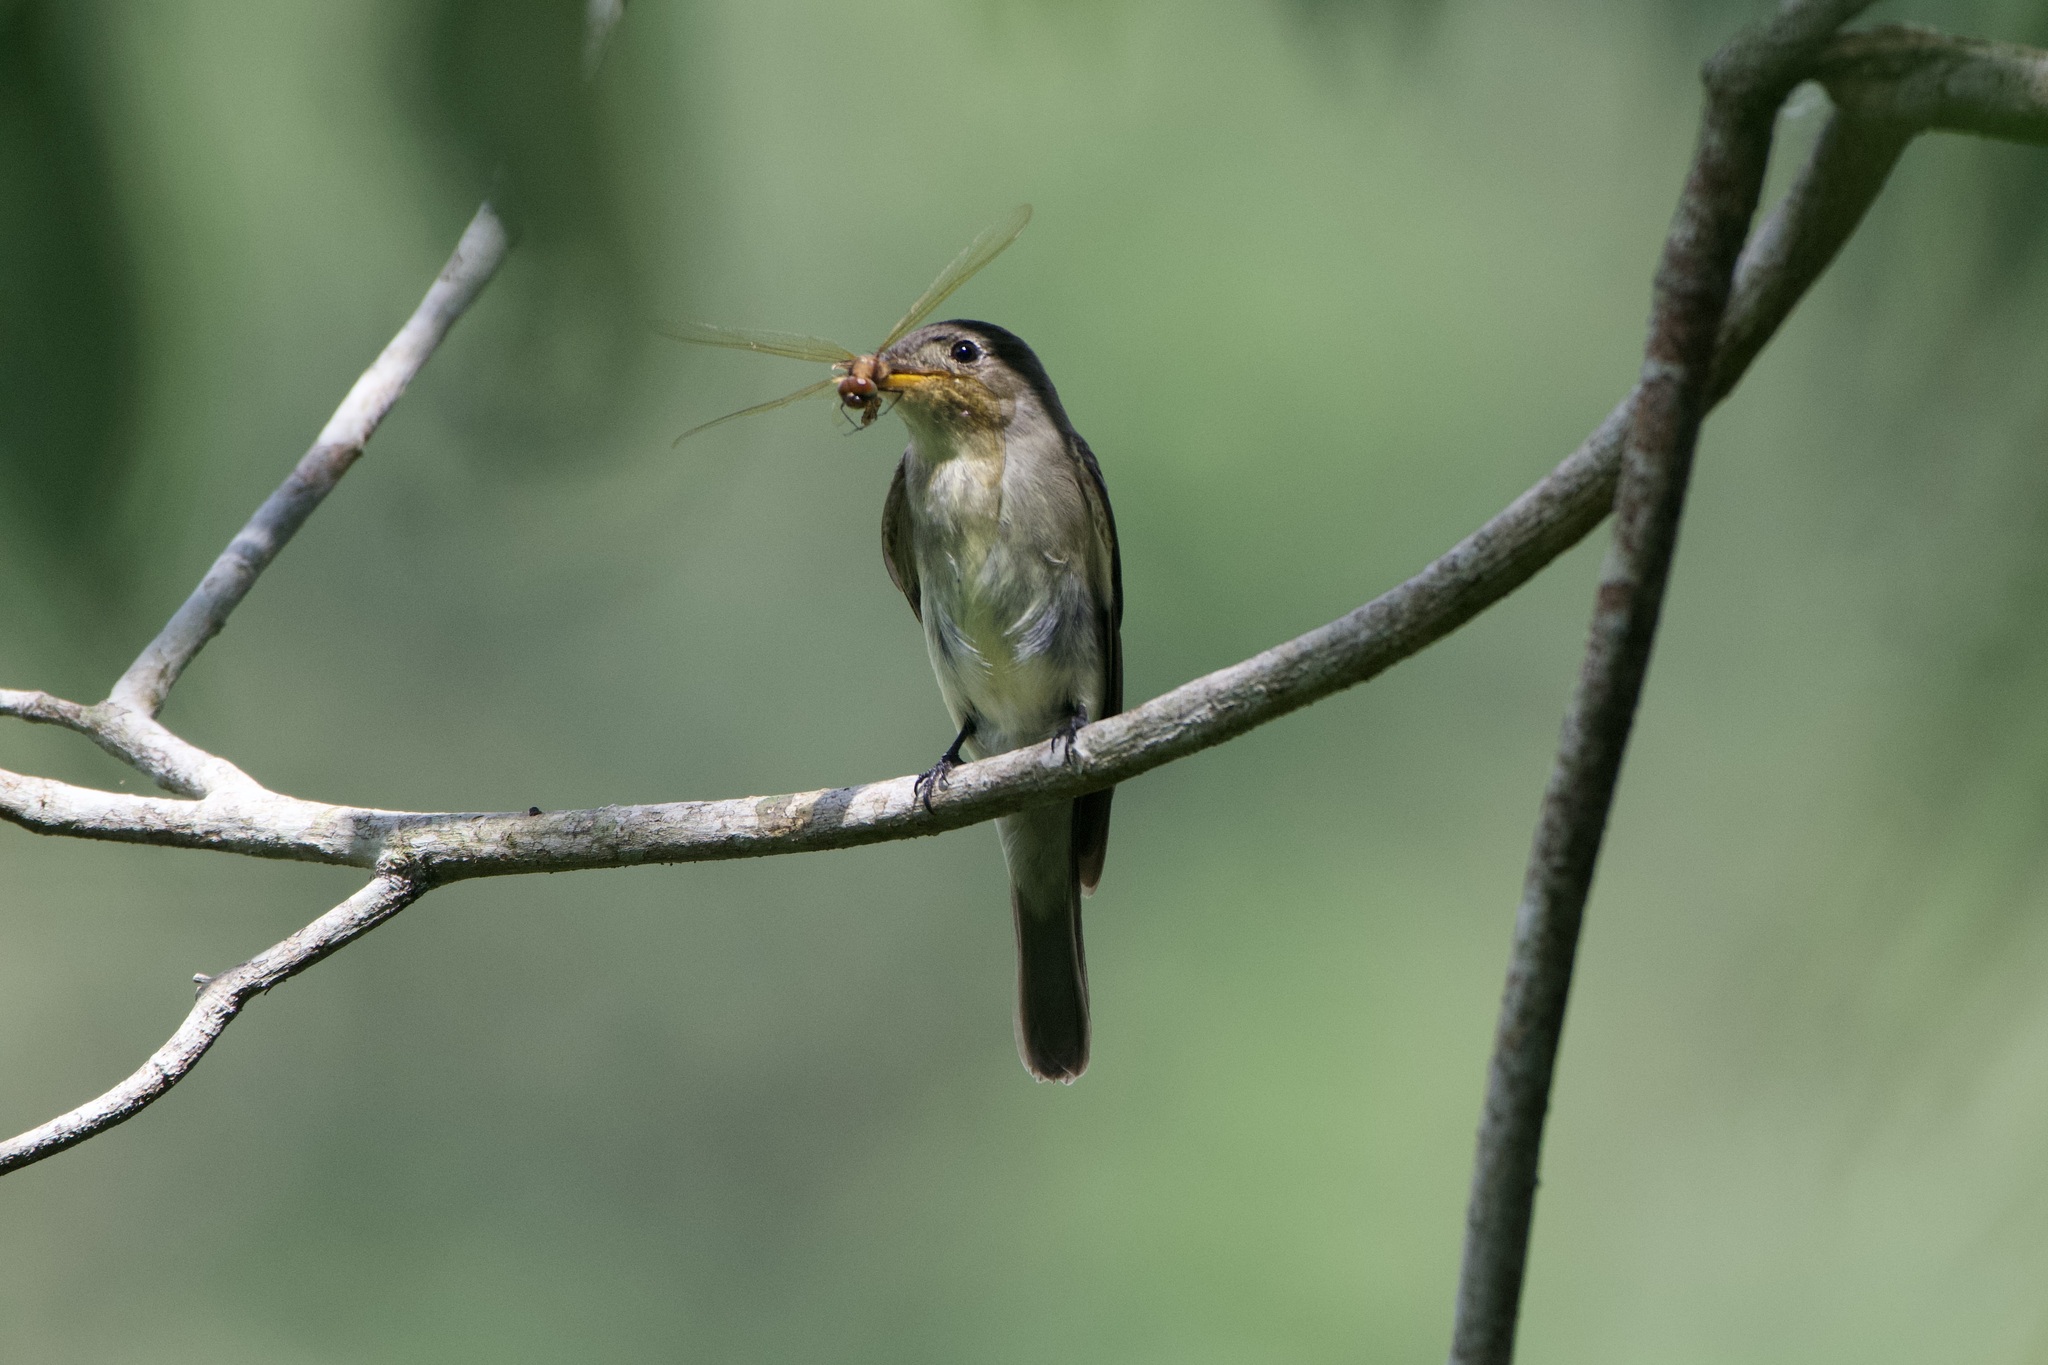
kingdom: Animalia
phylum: Chordata
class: Aves
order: Passeriformes
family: Tyrannidae
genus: Contopus
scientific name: Contopus
